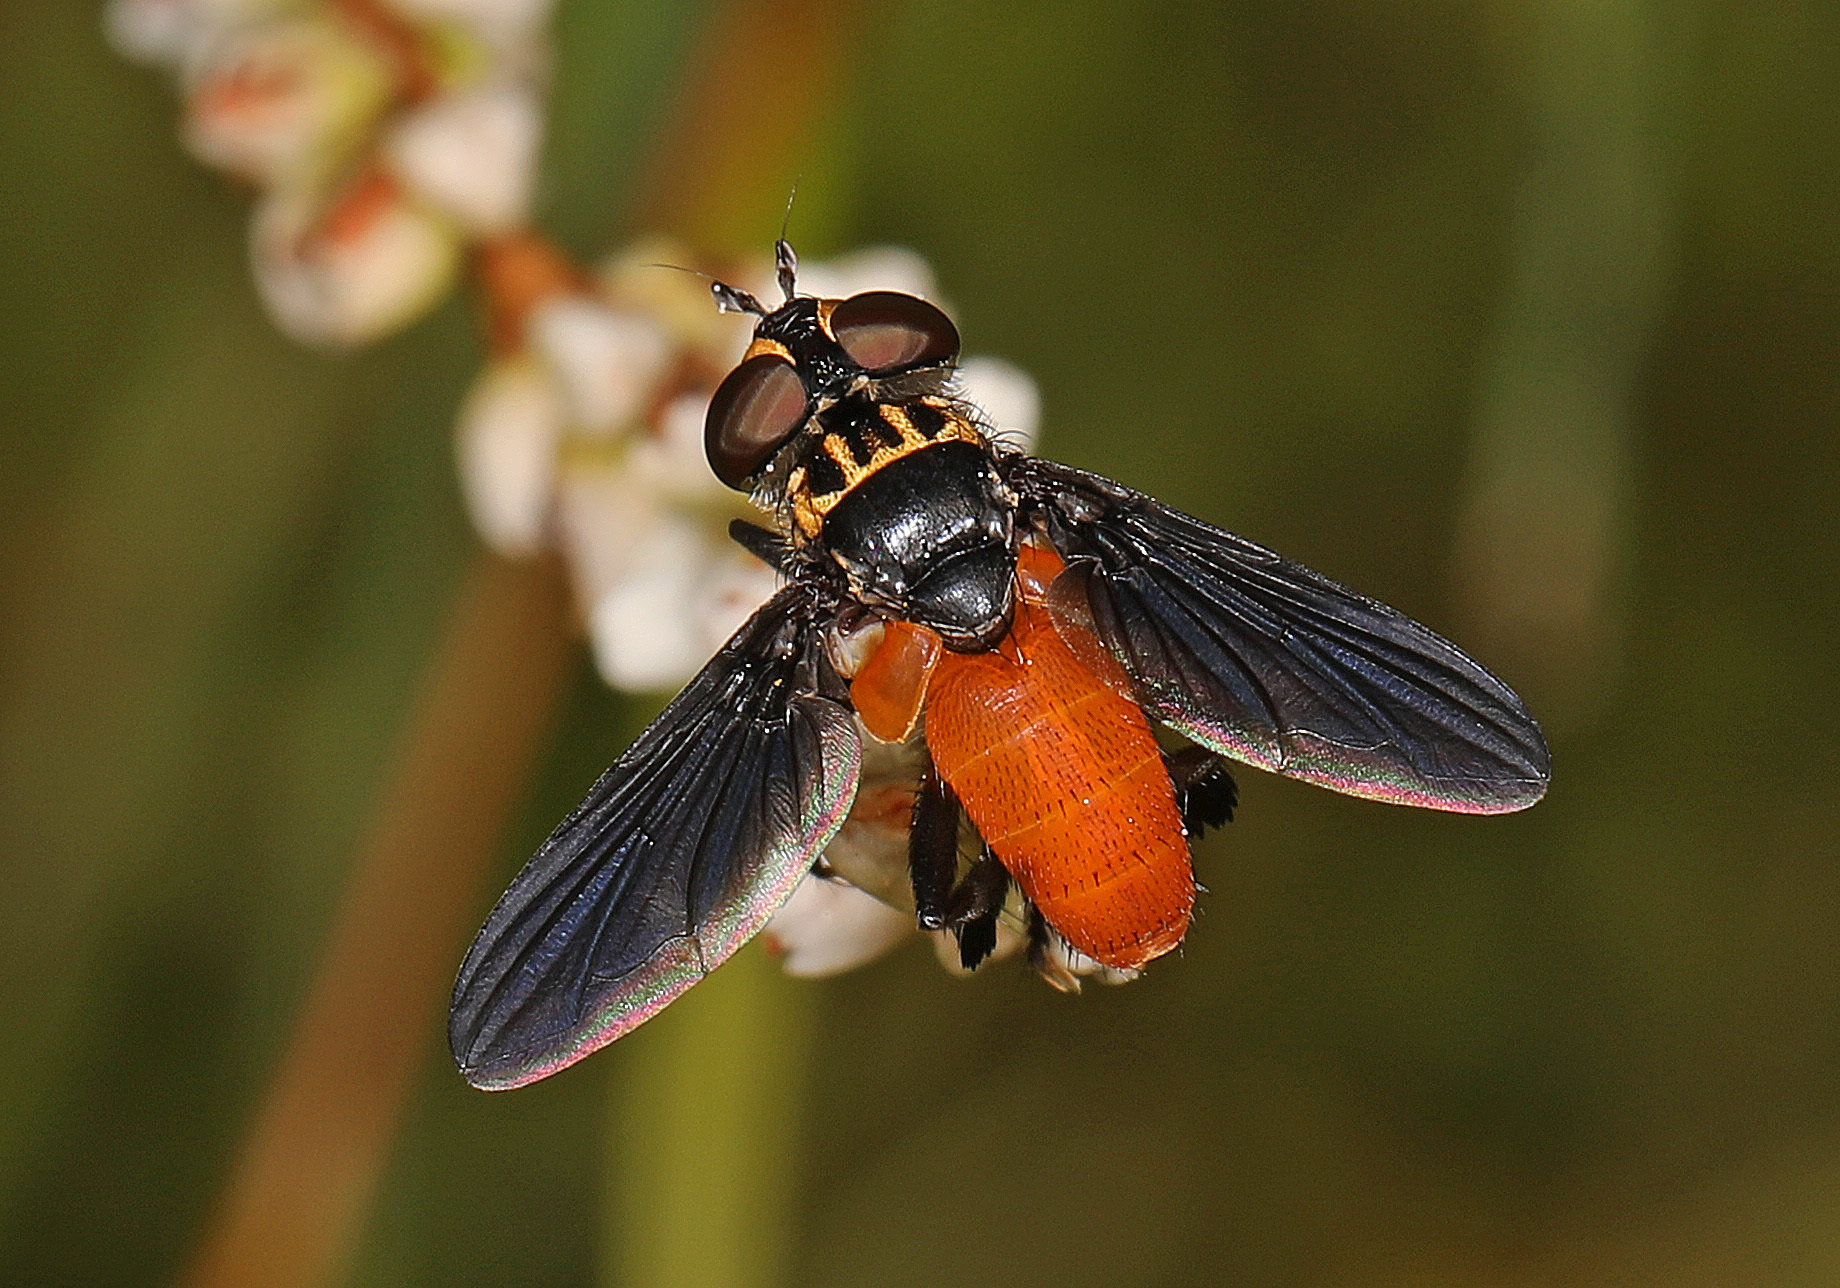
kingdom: Animalia
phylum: Arthropoda
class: Insecta
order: Diptera
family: Tachinidae
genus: Trichopoda
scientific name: Trichopoda pennipes
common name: Tachinid fly
